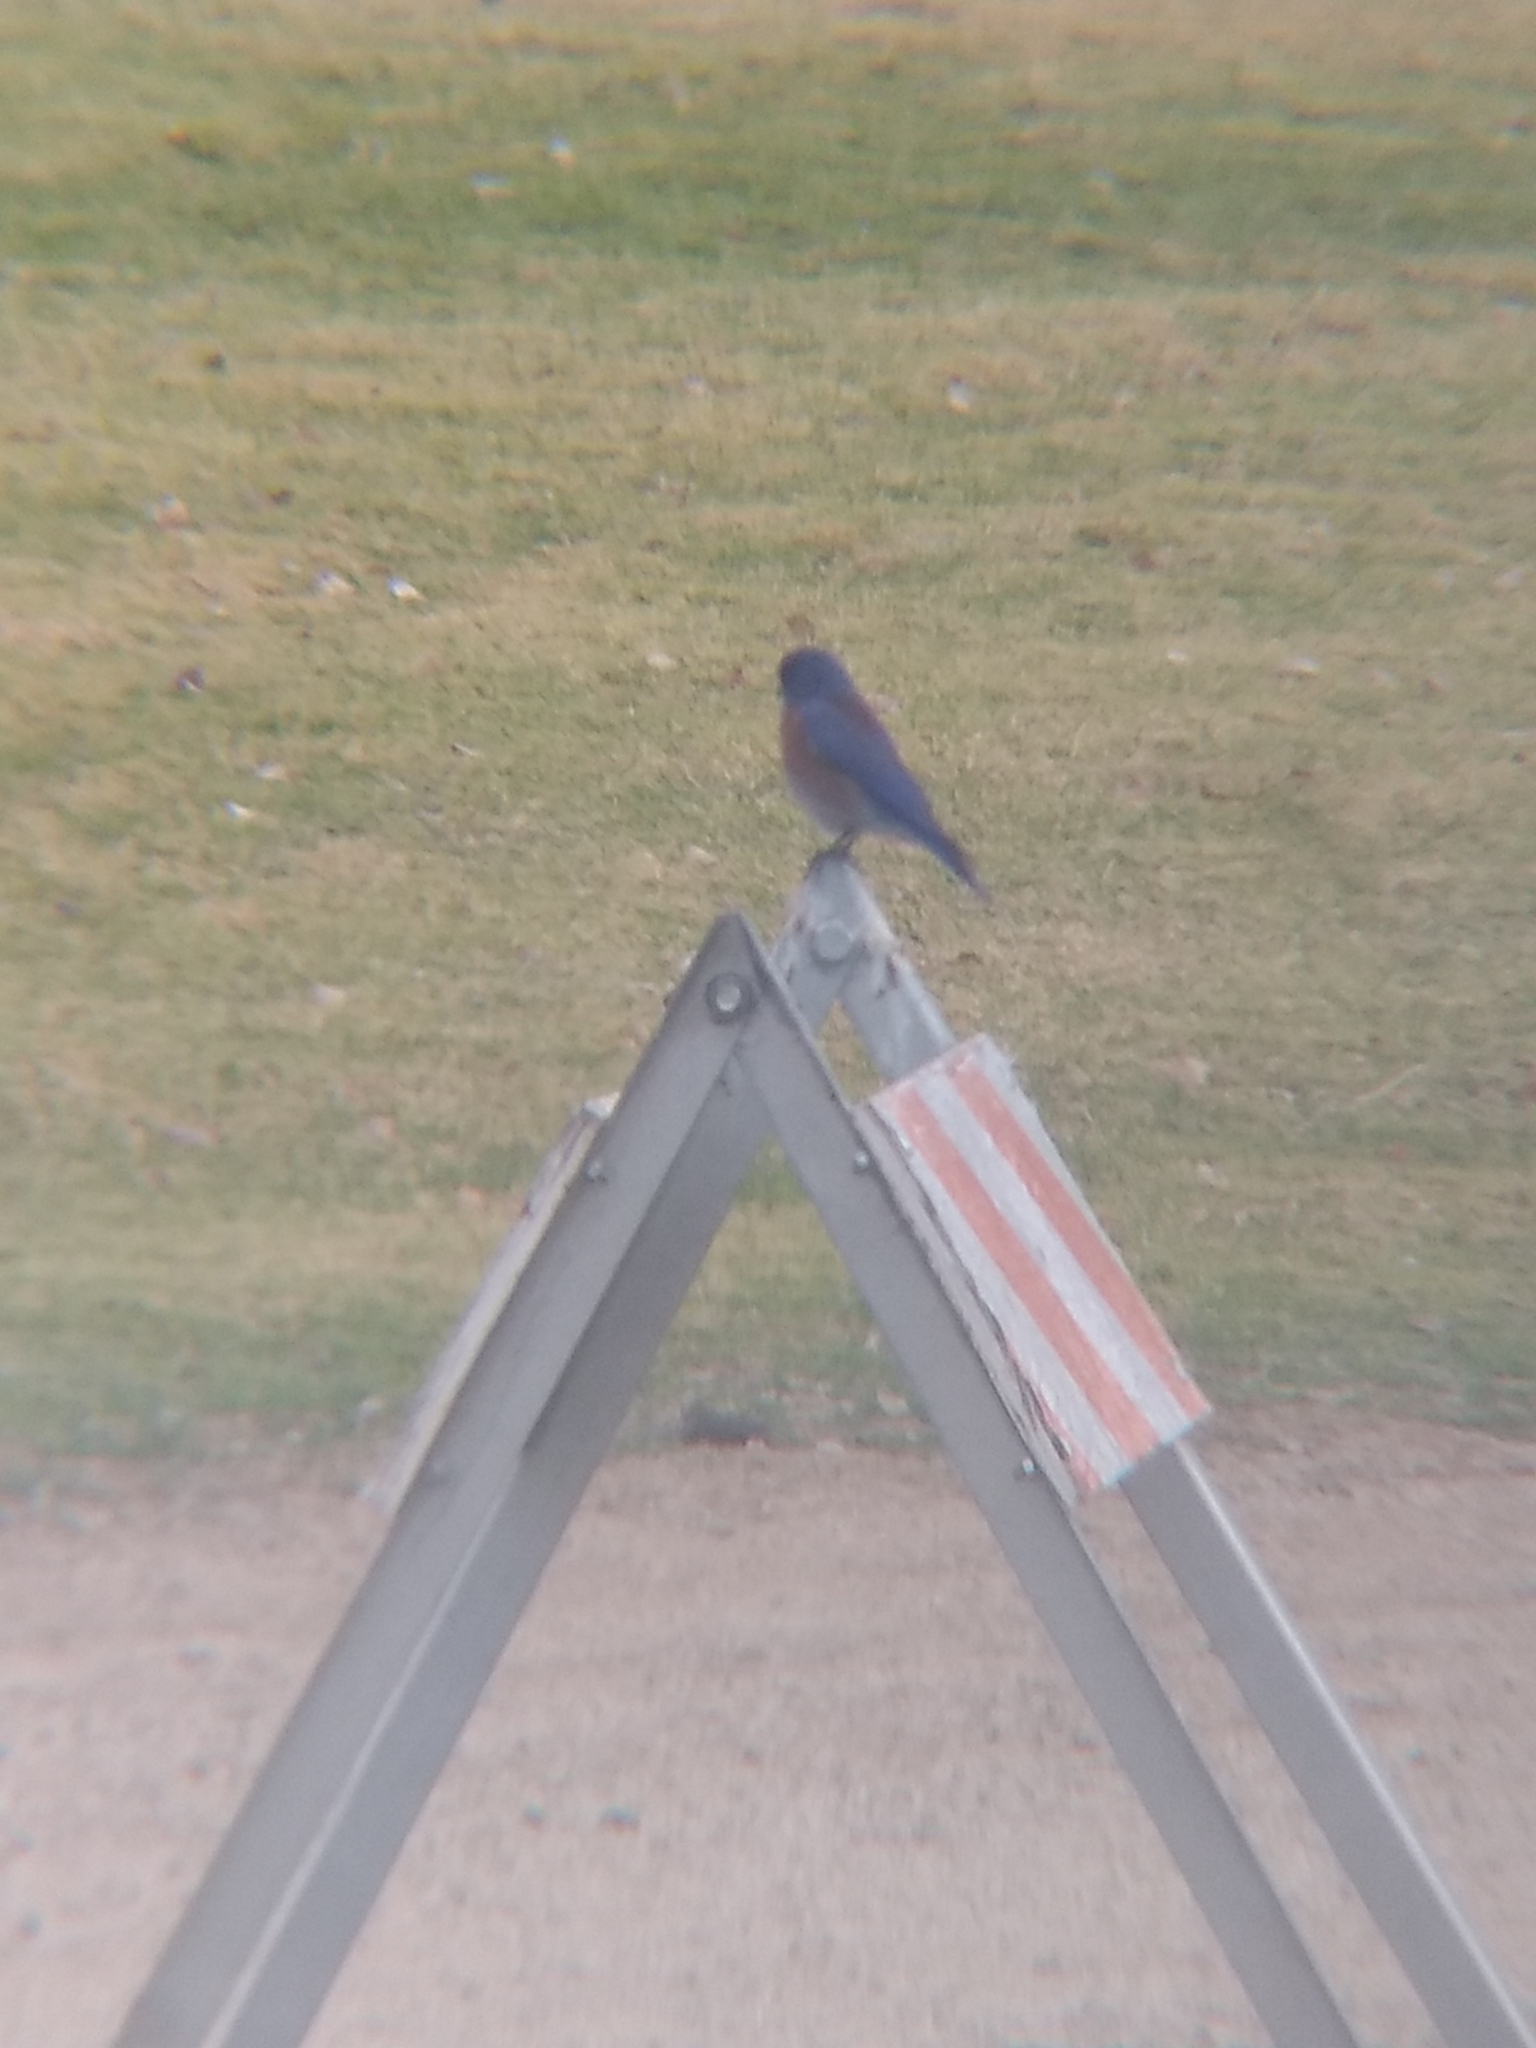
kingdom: Animalia
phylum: Chordata
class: Aves
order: Passeriformes
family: Turdidae
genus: Sialia
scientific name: Sialia mexicana
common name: Western bluebird
